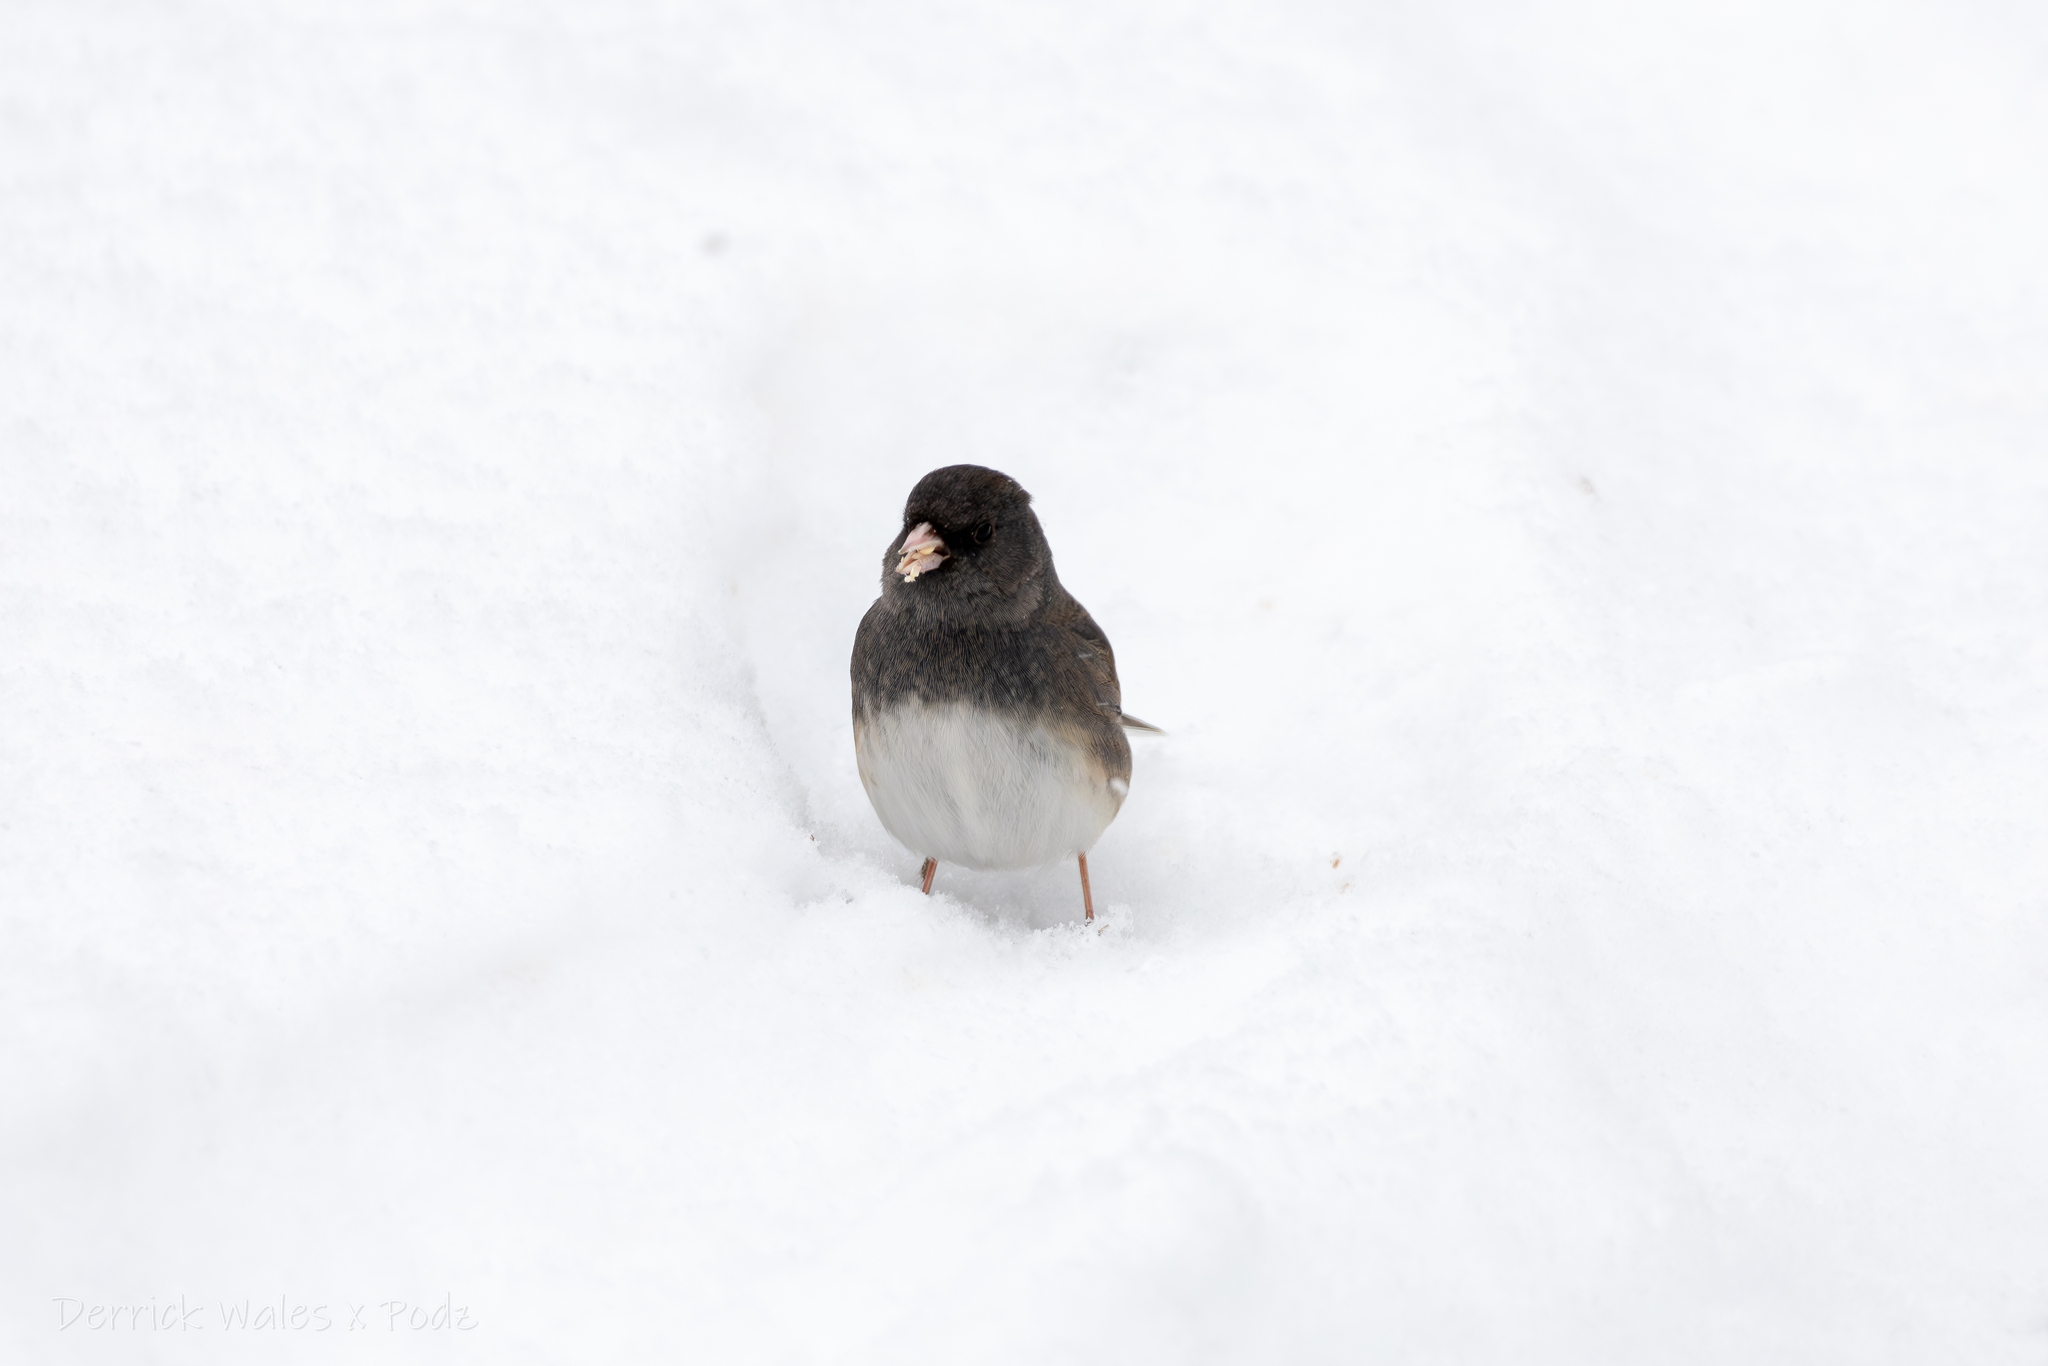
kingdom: Animalia
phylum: Chordata
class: Aves
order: Passeriformes
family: Passerellidae
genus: Junco
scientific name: Junco hyemalis
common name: Dark-eyed junco
